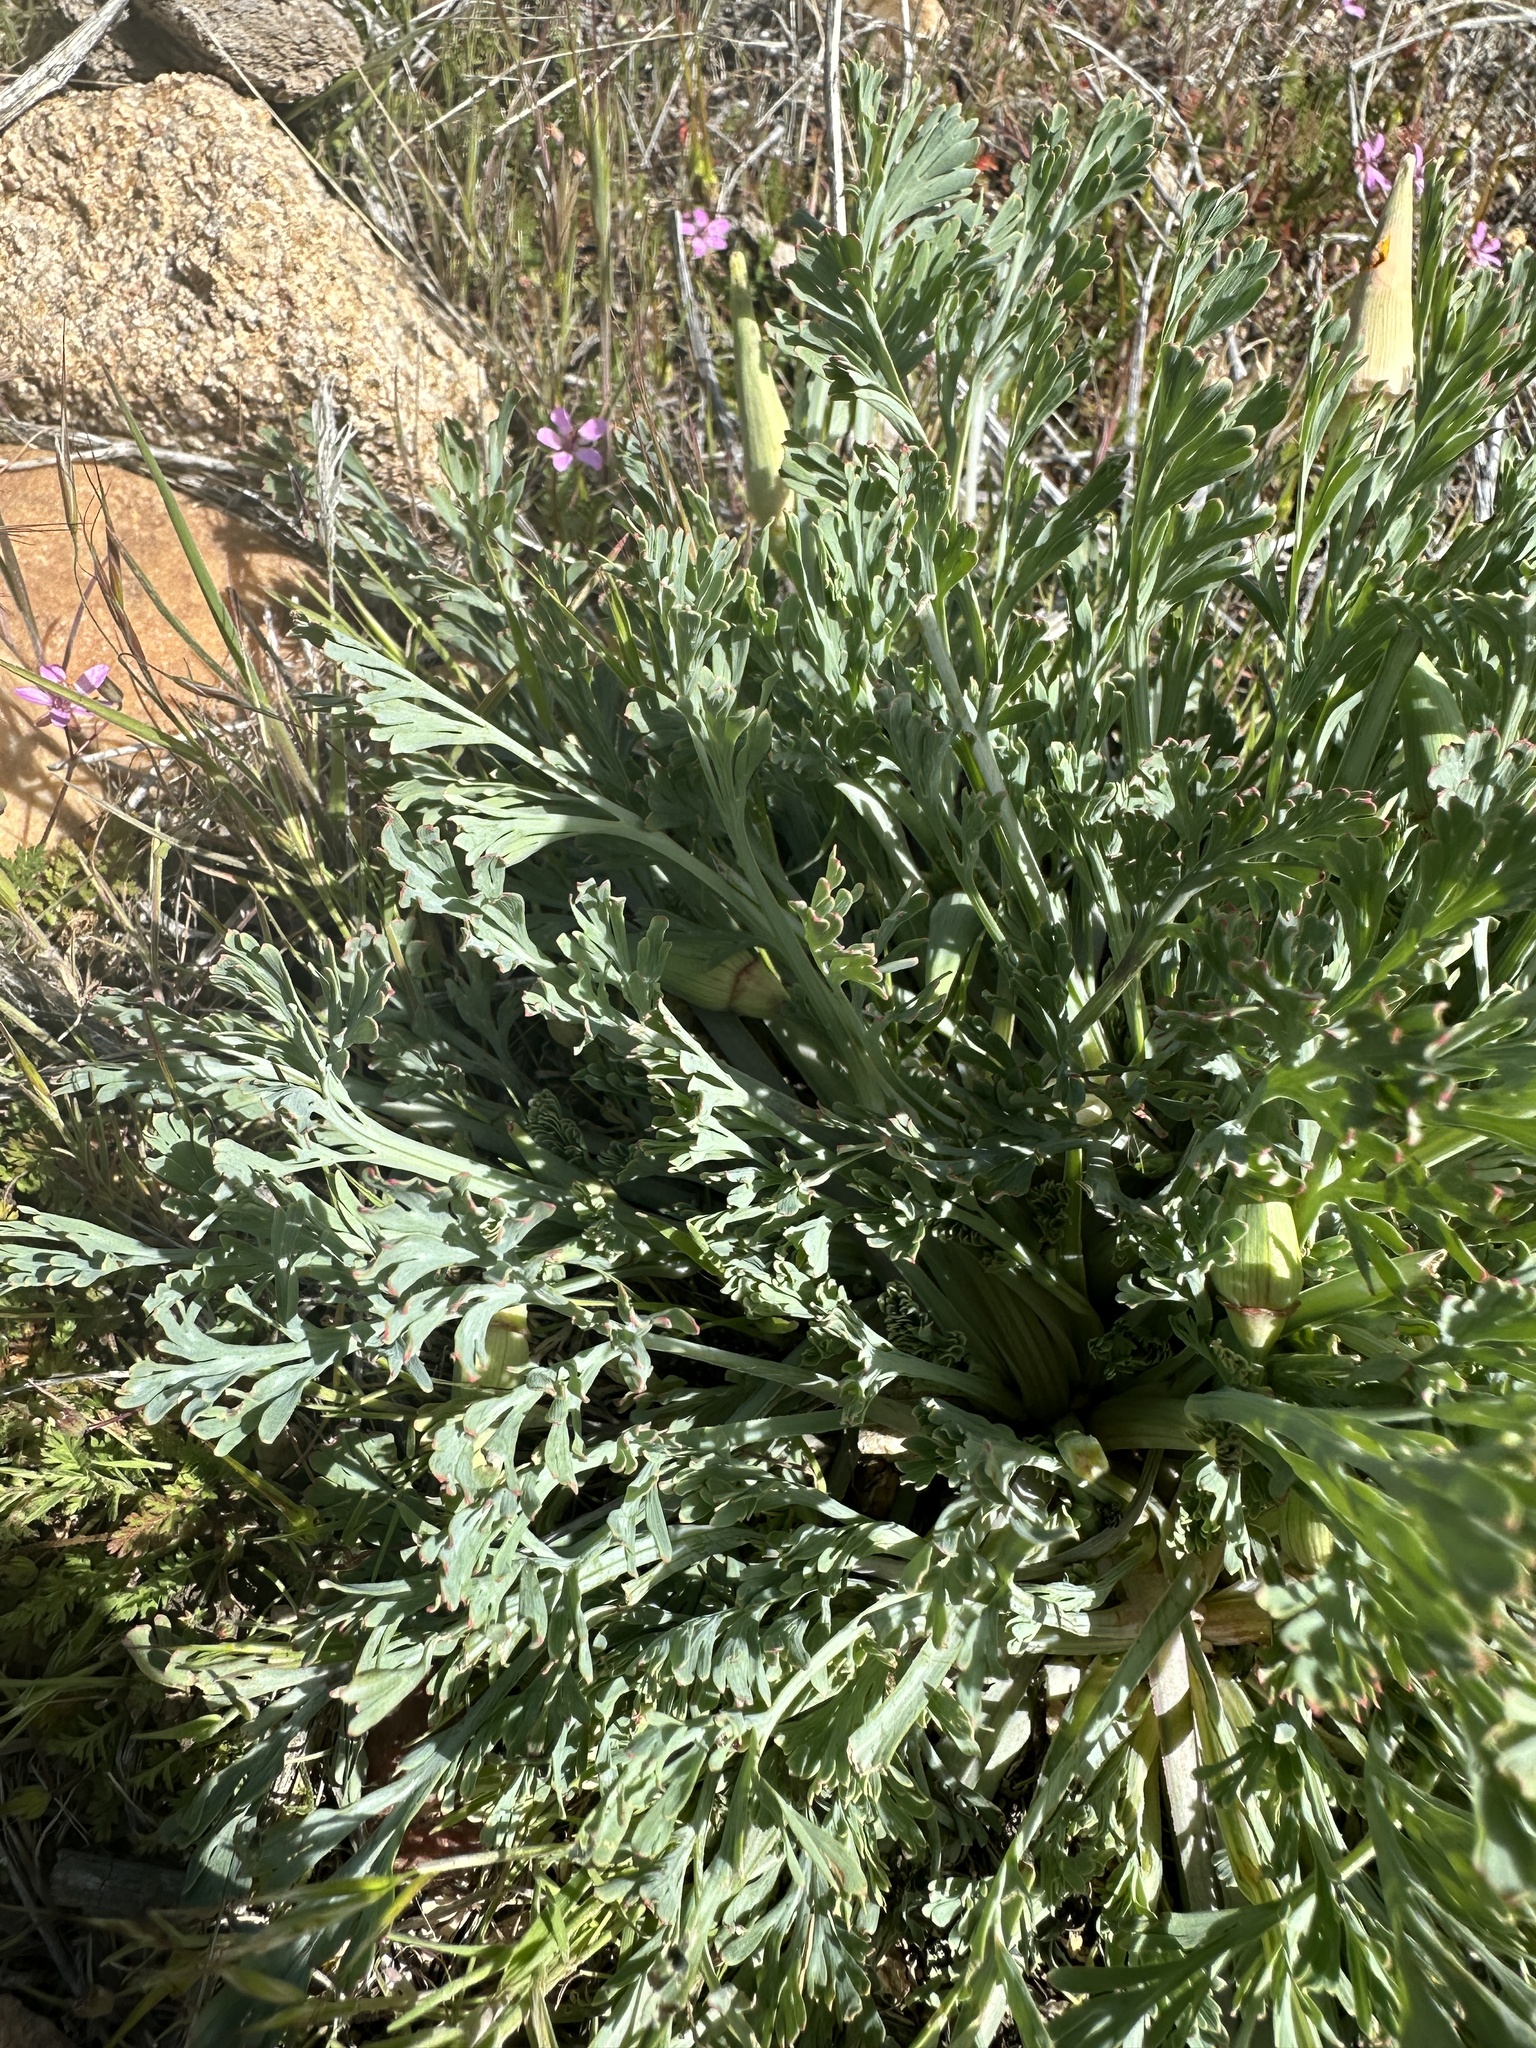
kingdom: Plantae
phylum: Tracheophyta
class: Magnoliopsida
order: Ranunculales
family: Papaveraceae
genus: Eschscholzia
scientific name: Eschscholzia californica
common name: California poppy
